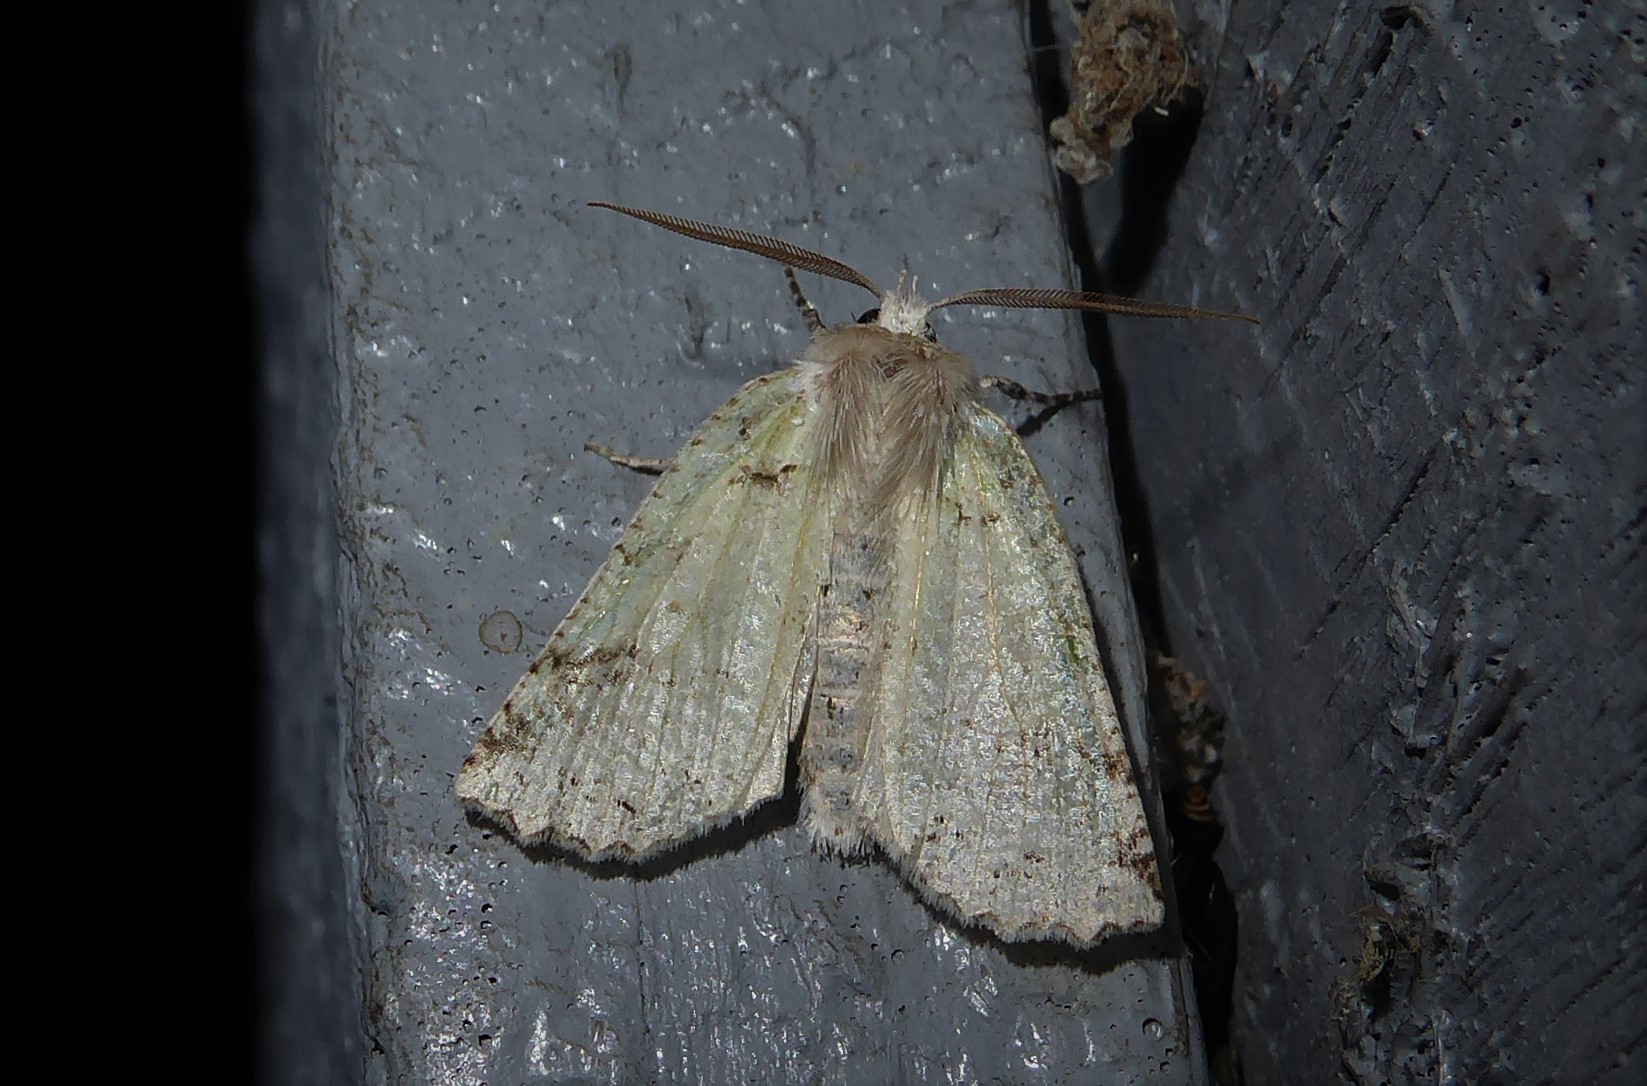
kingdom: Animalia
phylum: Arthropoda
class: Insecta
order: Lepidoptera
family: Geometridae
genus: Declana
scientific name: Declana floccosa
